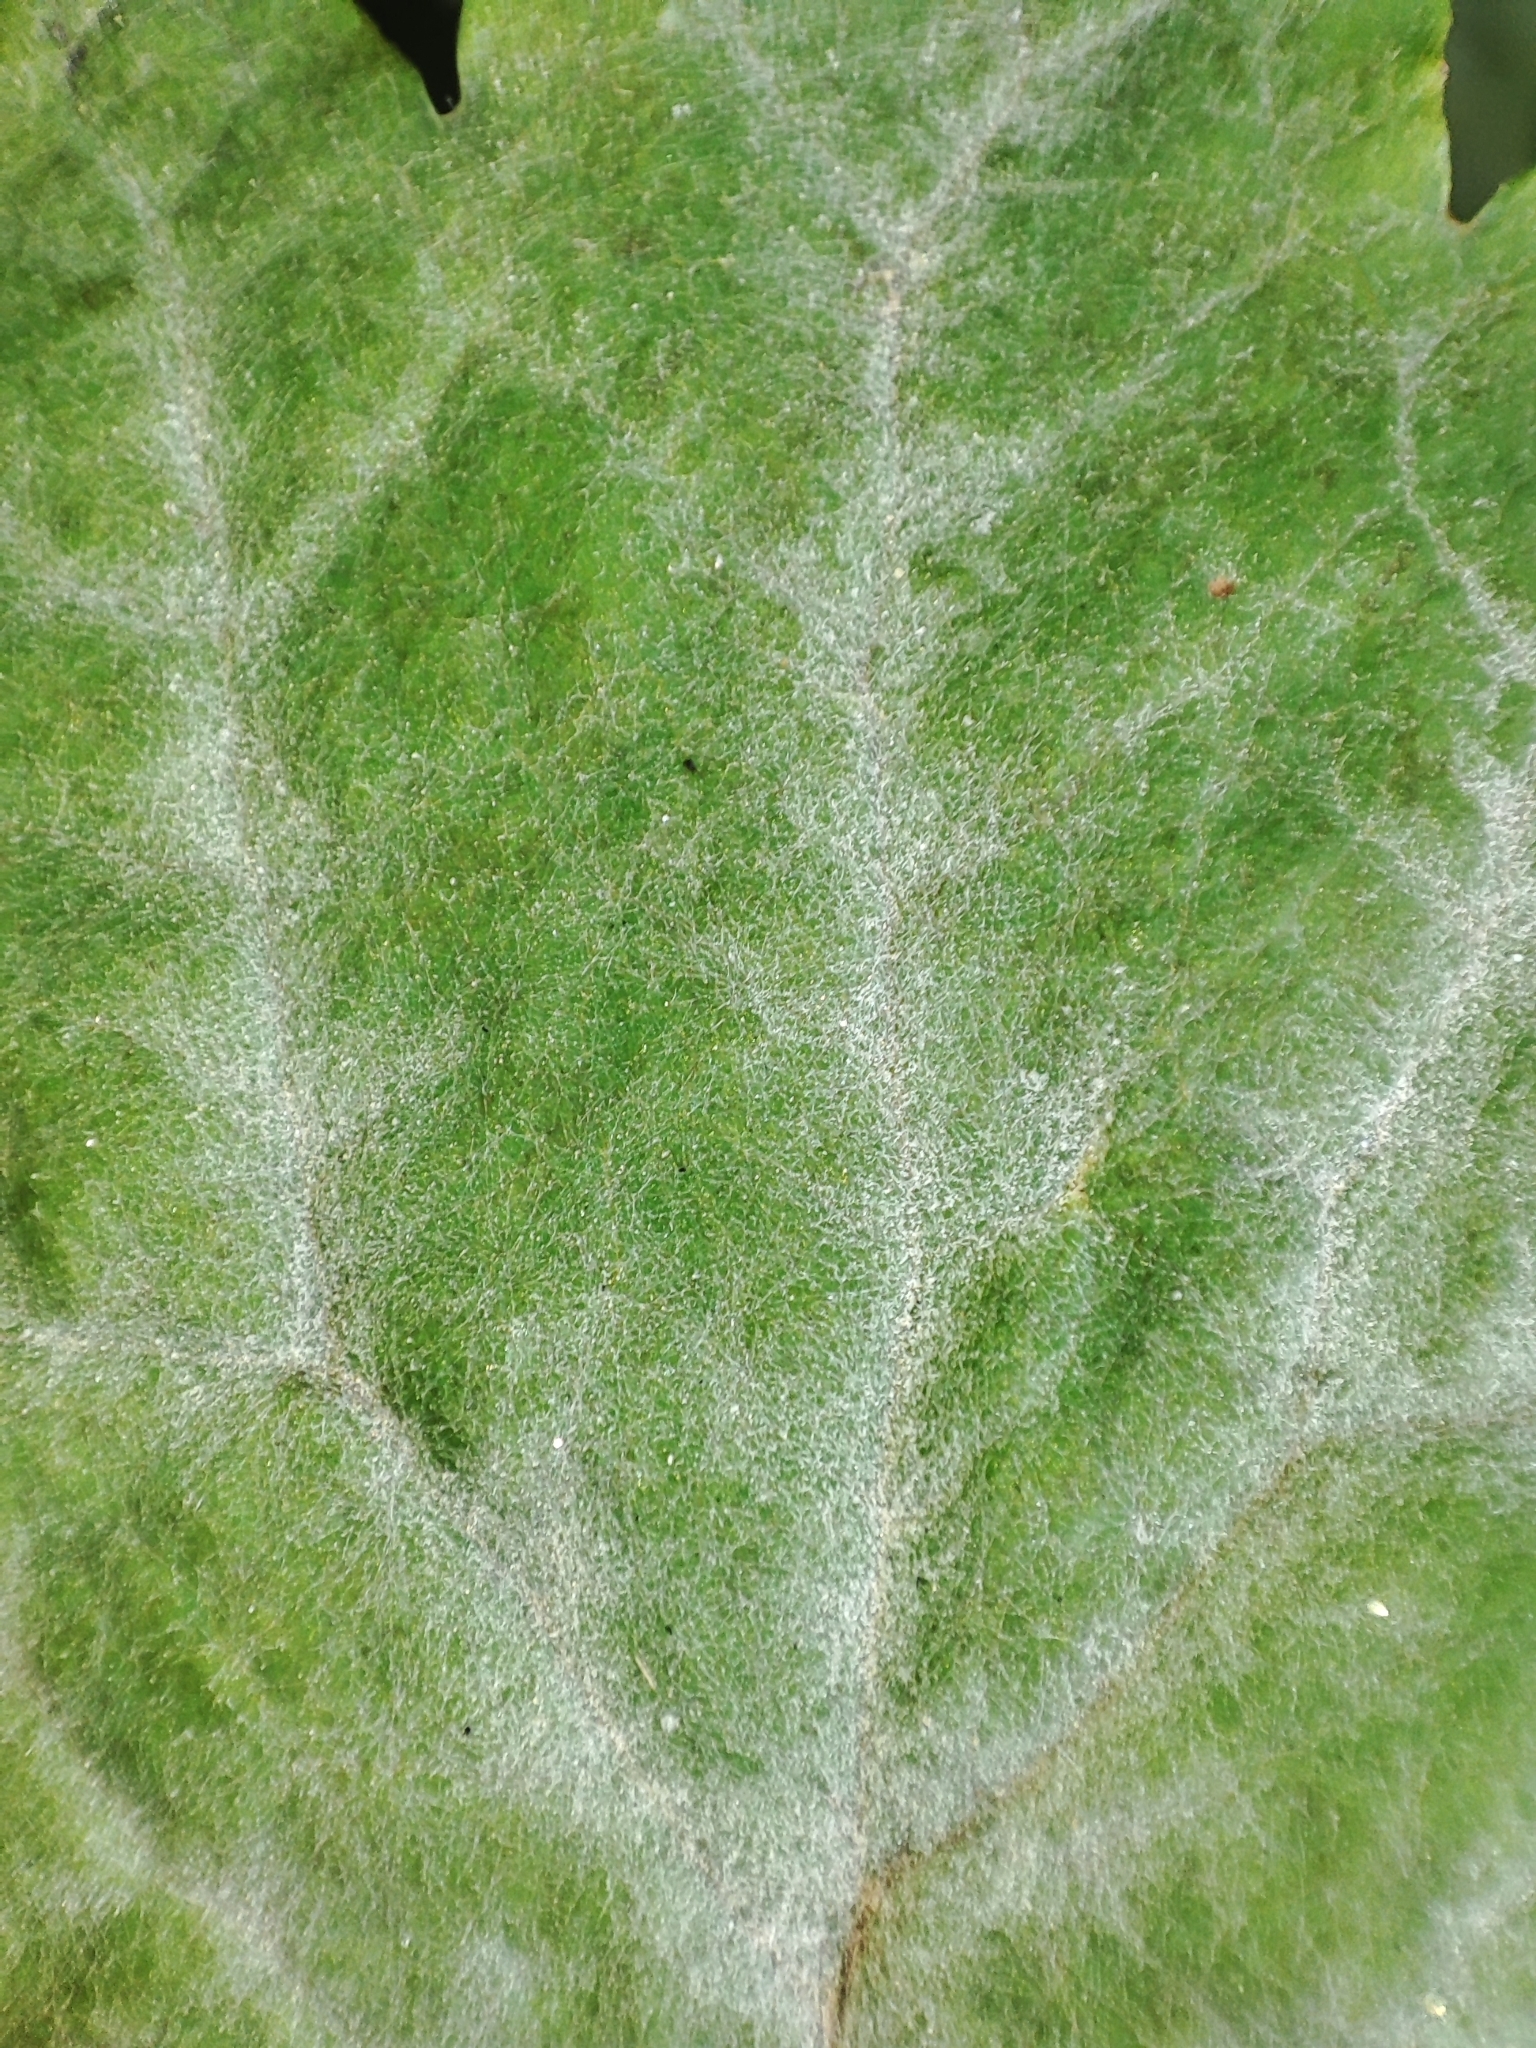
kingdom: Fungi
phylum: Ascomycota
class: Leotiomycetes
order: Helotiales
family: Erysiphaceae
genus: Erysiphe
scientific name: Erysiphe macleayae
